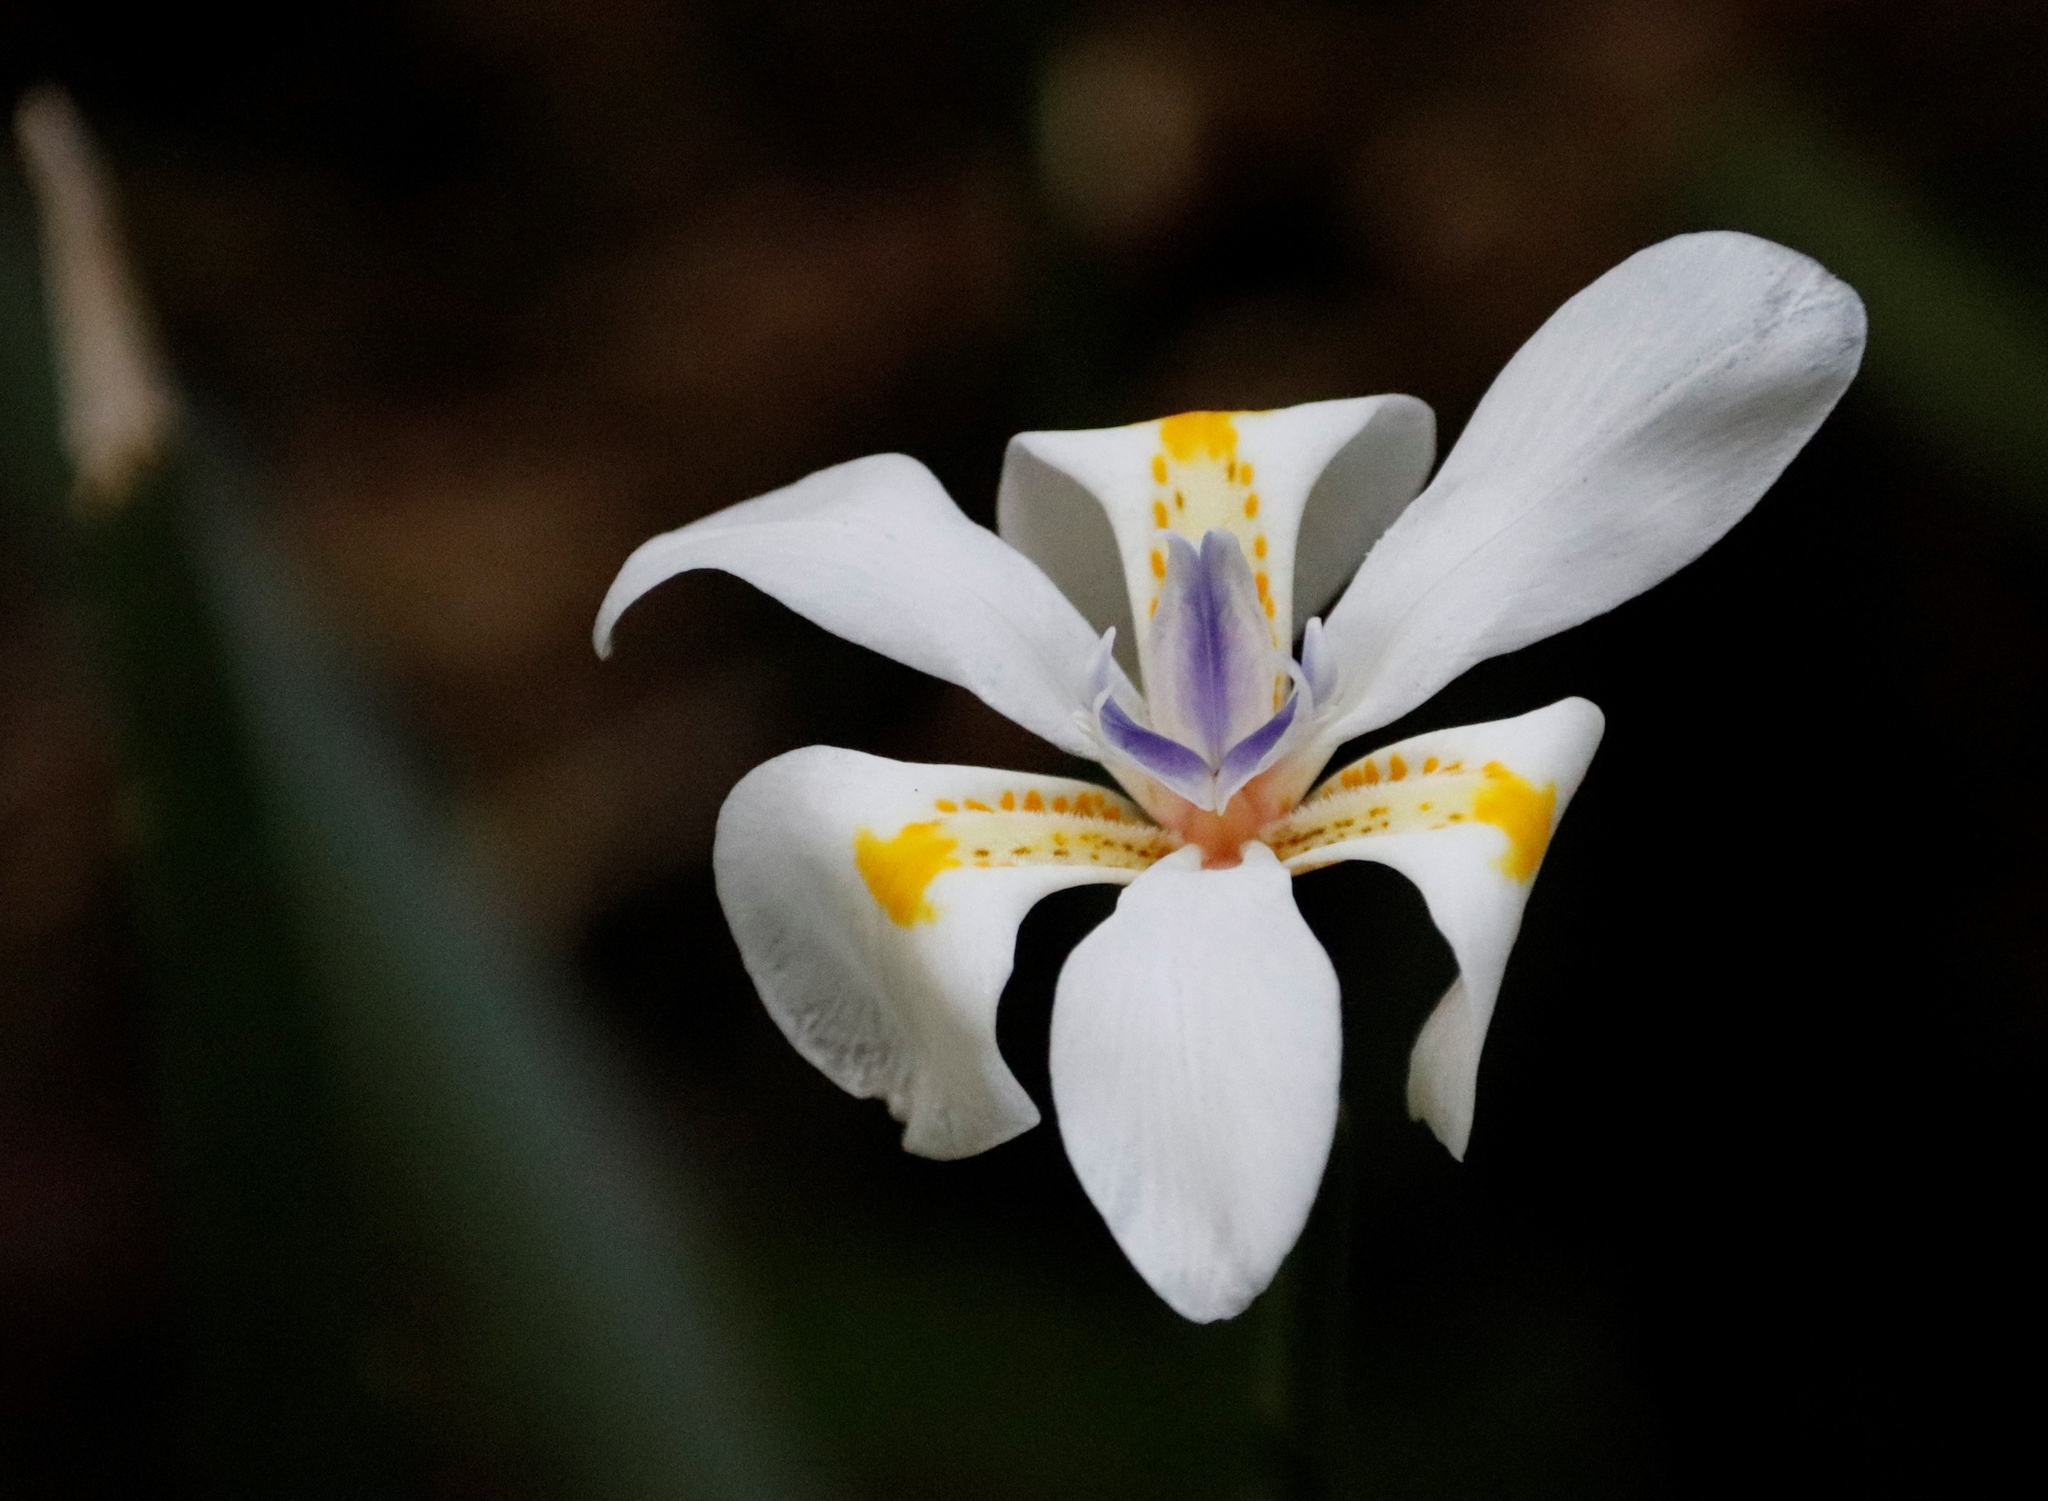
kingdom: Plantae
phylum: Tracheophyta
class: Liliopsida
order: Asparagales
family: Iridaceae
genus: Dietes
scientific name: Dietes iridioides
